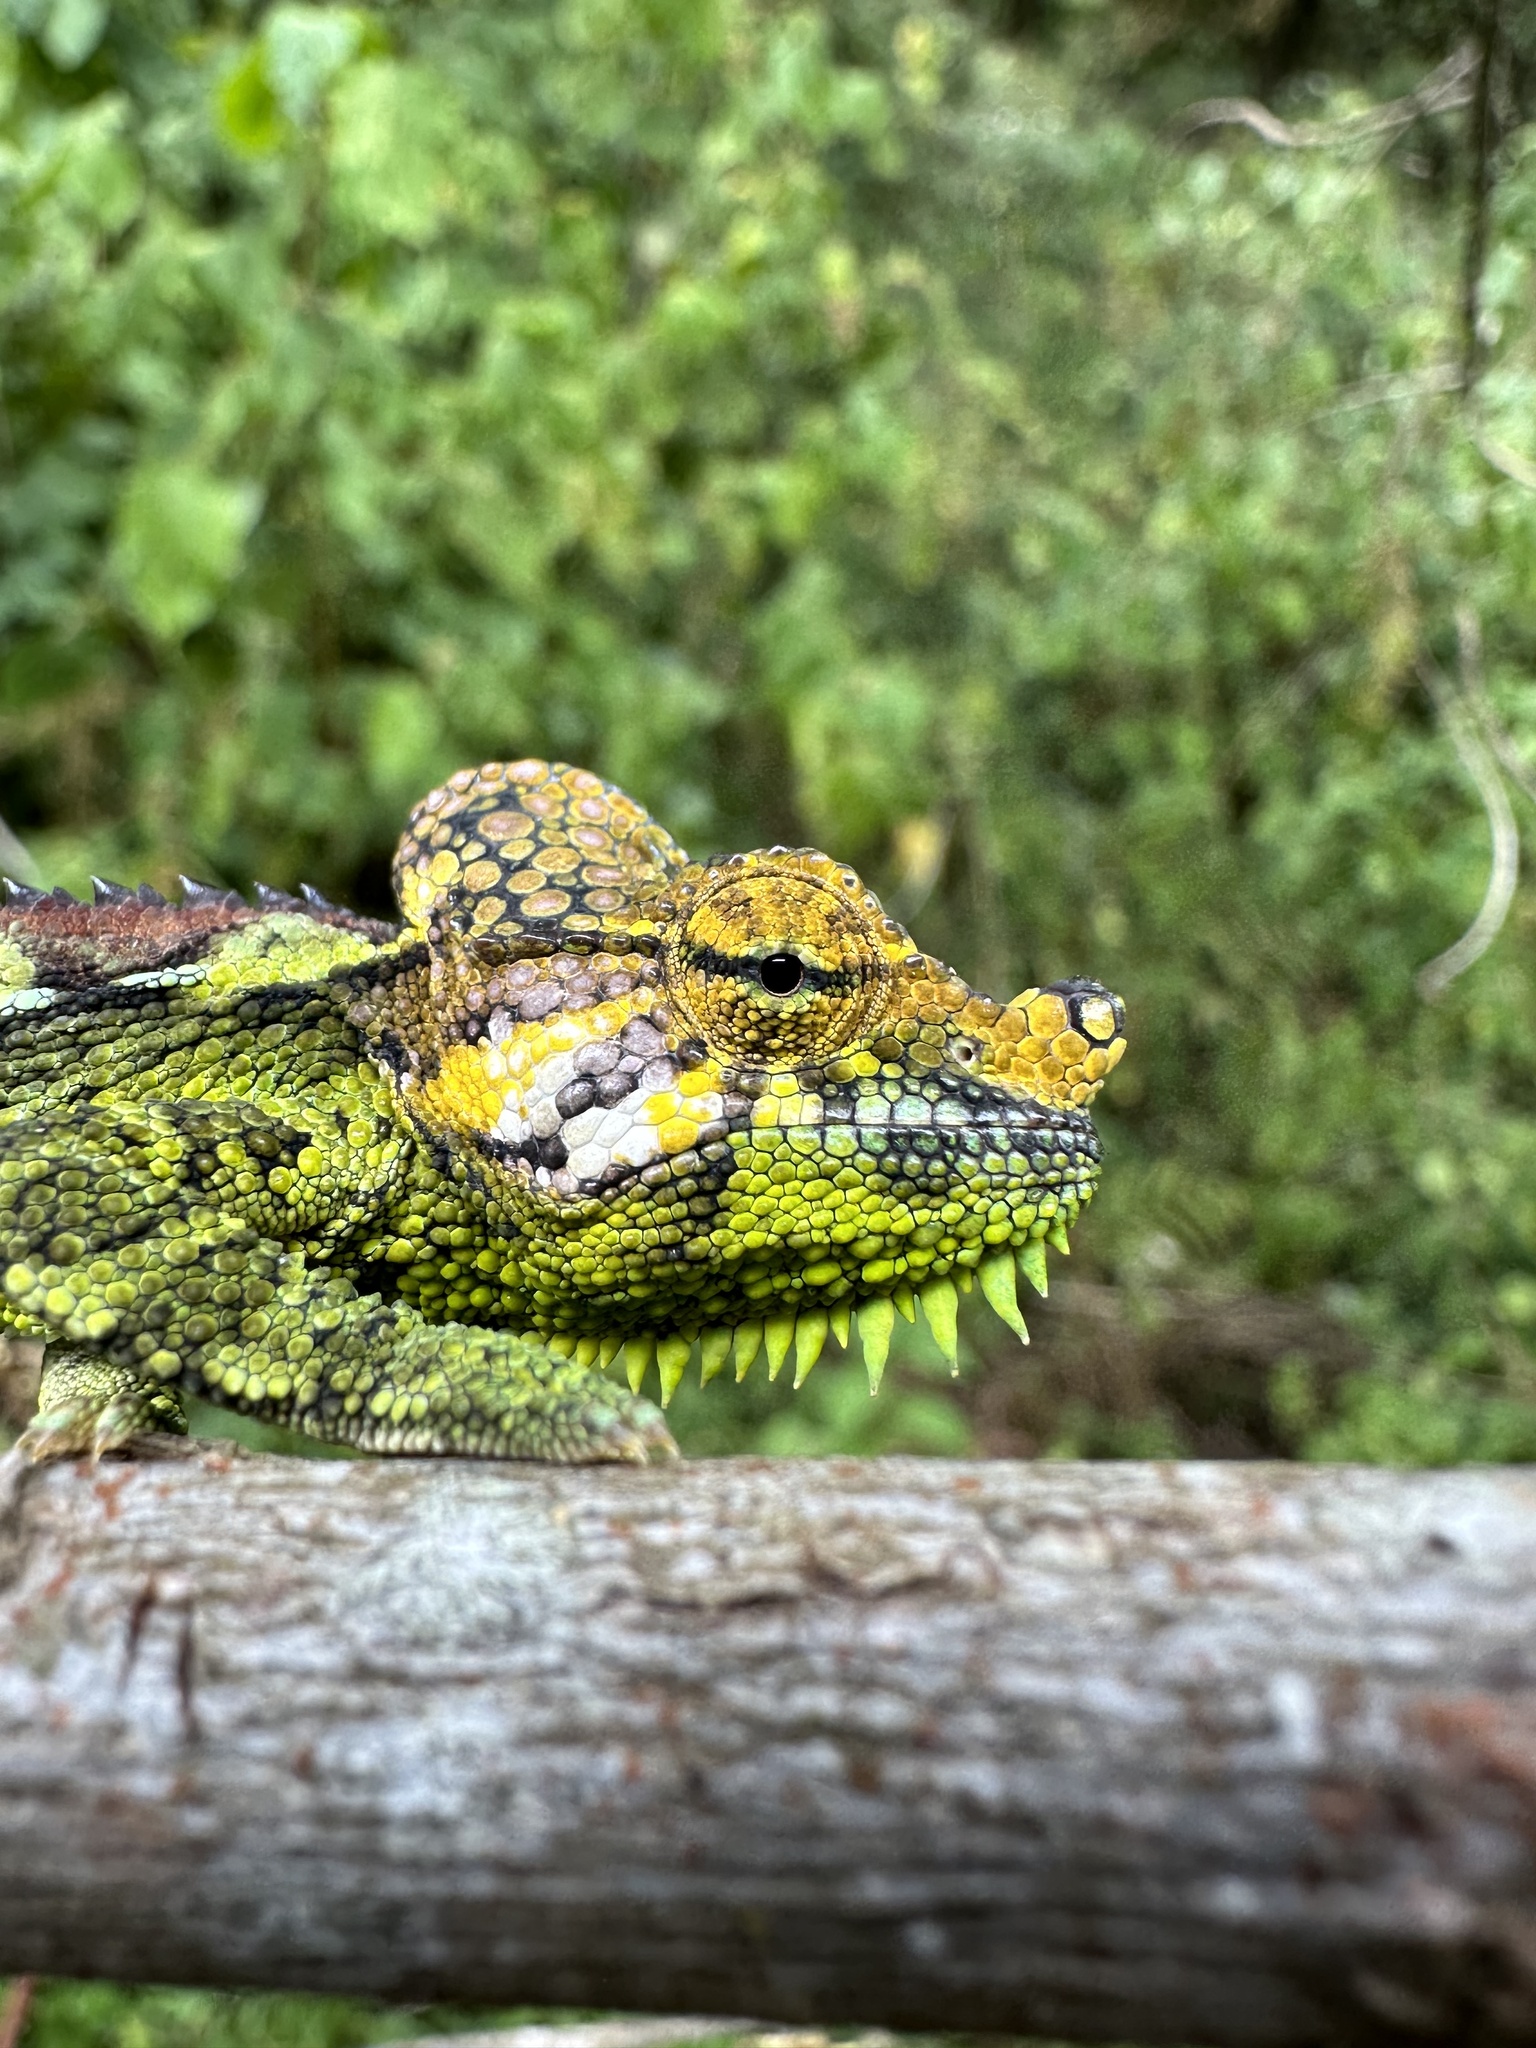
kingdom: Animalia
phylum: Chordata
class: Squamata
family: Chamaeleonidae
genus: Trioceros
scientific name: Trioceros hoehnelii
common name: High-casqued chameleon
